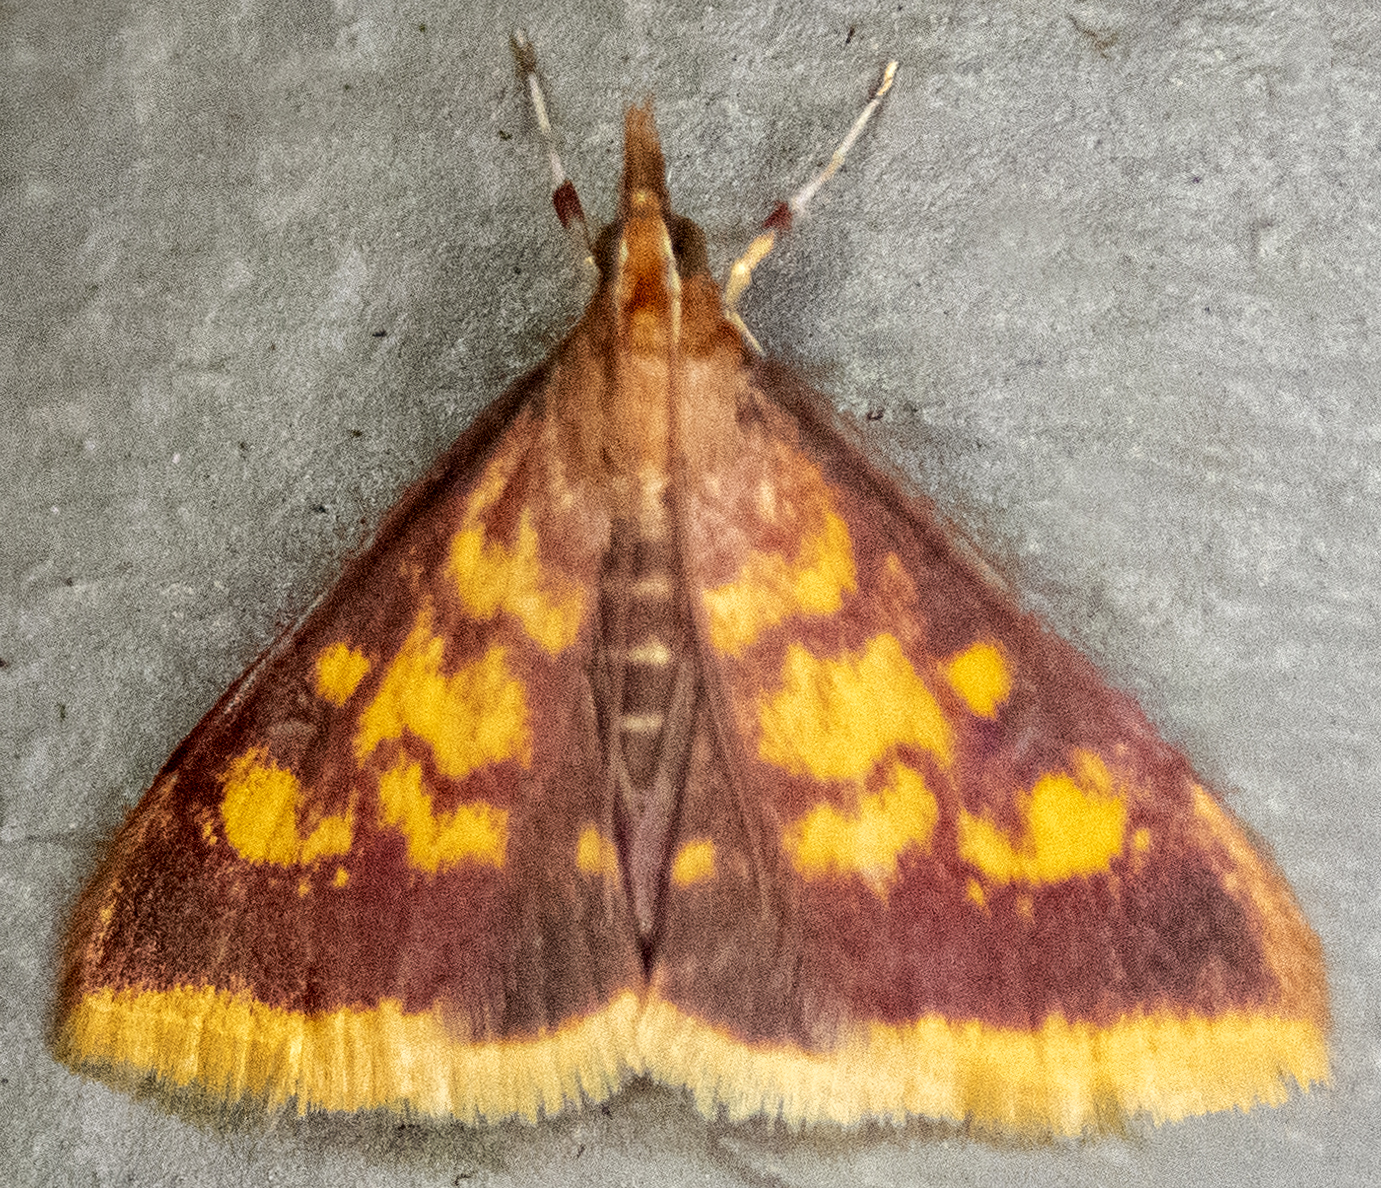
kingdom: Animalia
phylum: Arthropoda
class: Insecta
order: Lepidoptera
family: Crambidae
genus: Pyrausta
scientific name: Pyrausta acrionalis
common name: Mint-loving pyrausta moth
